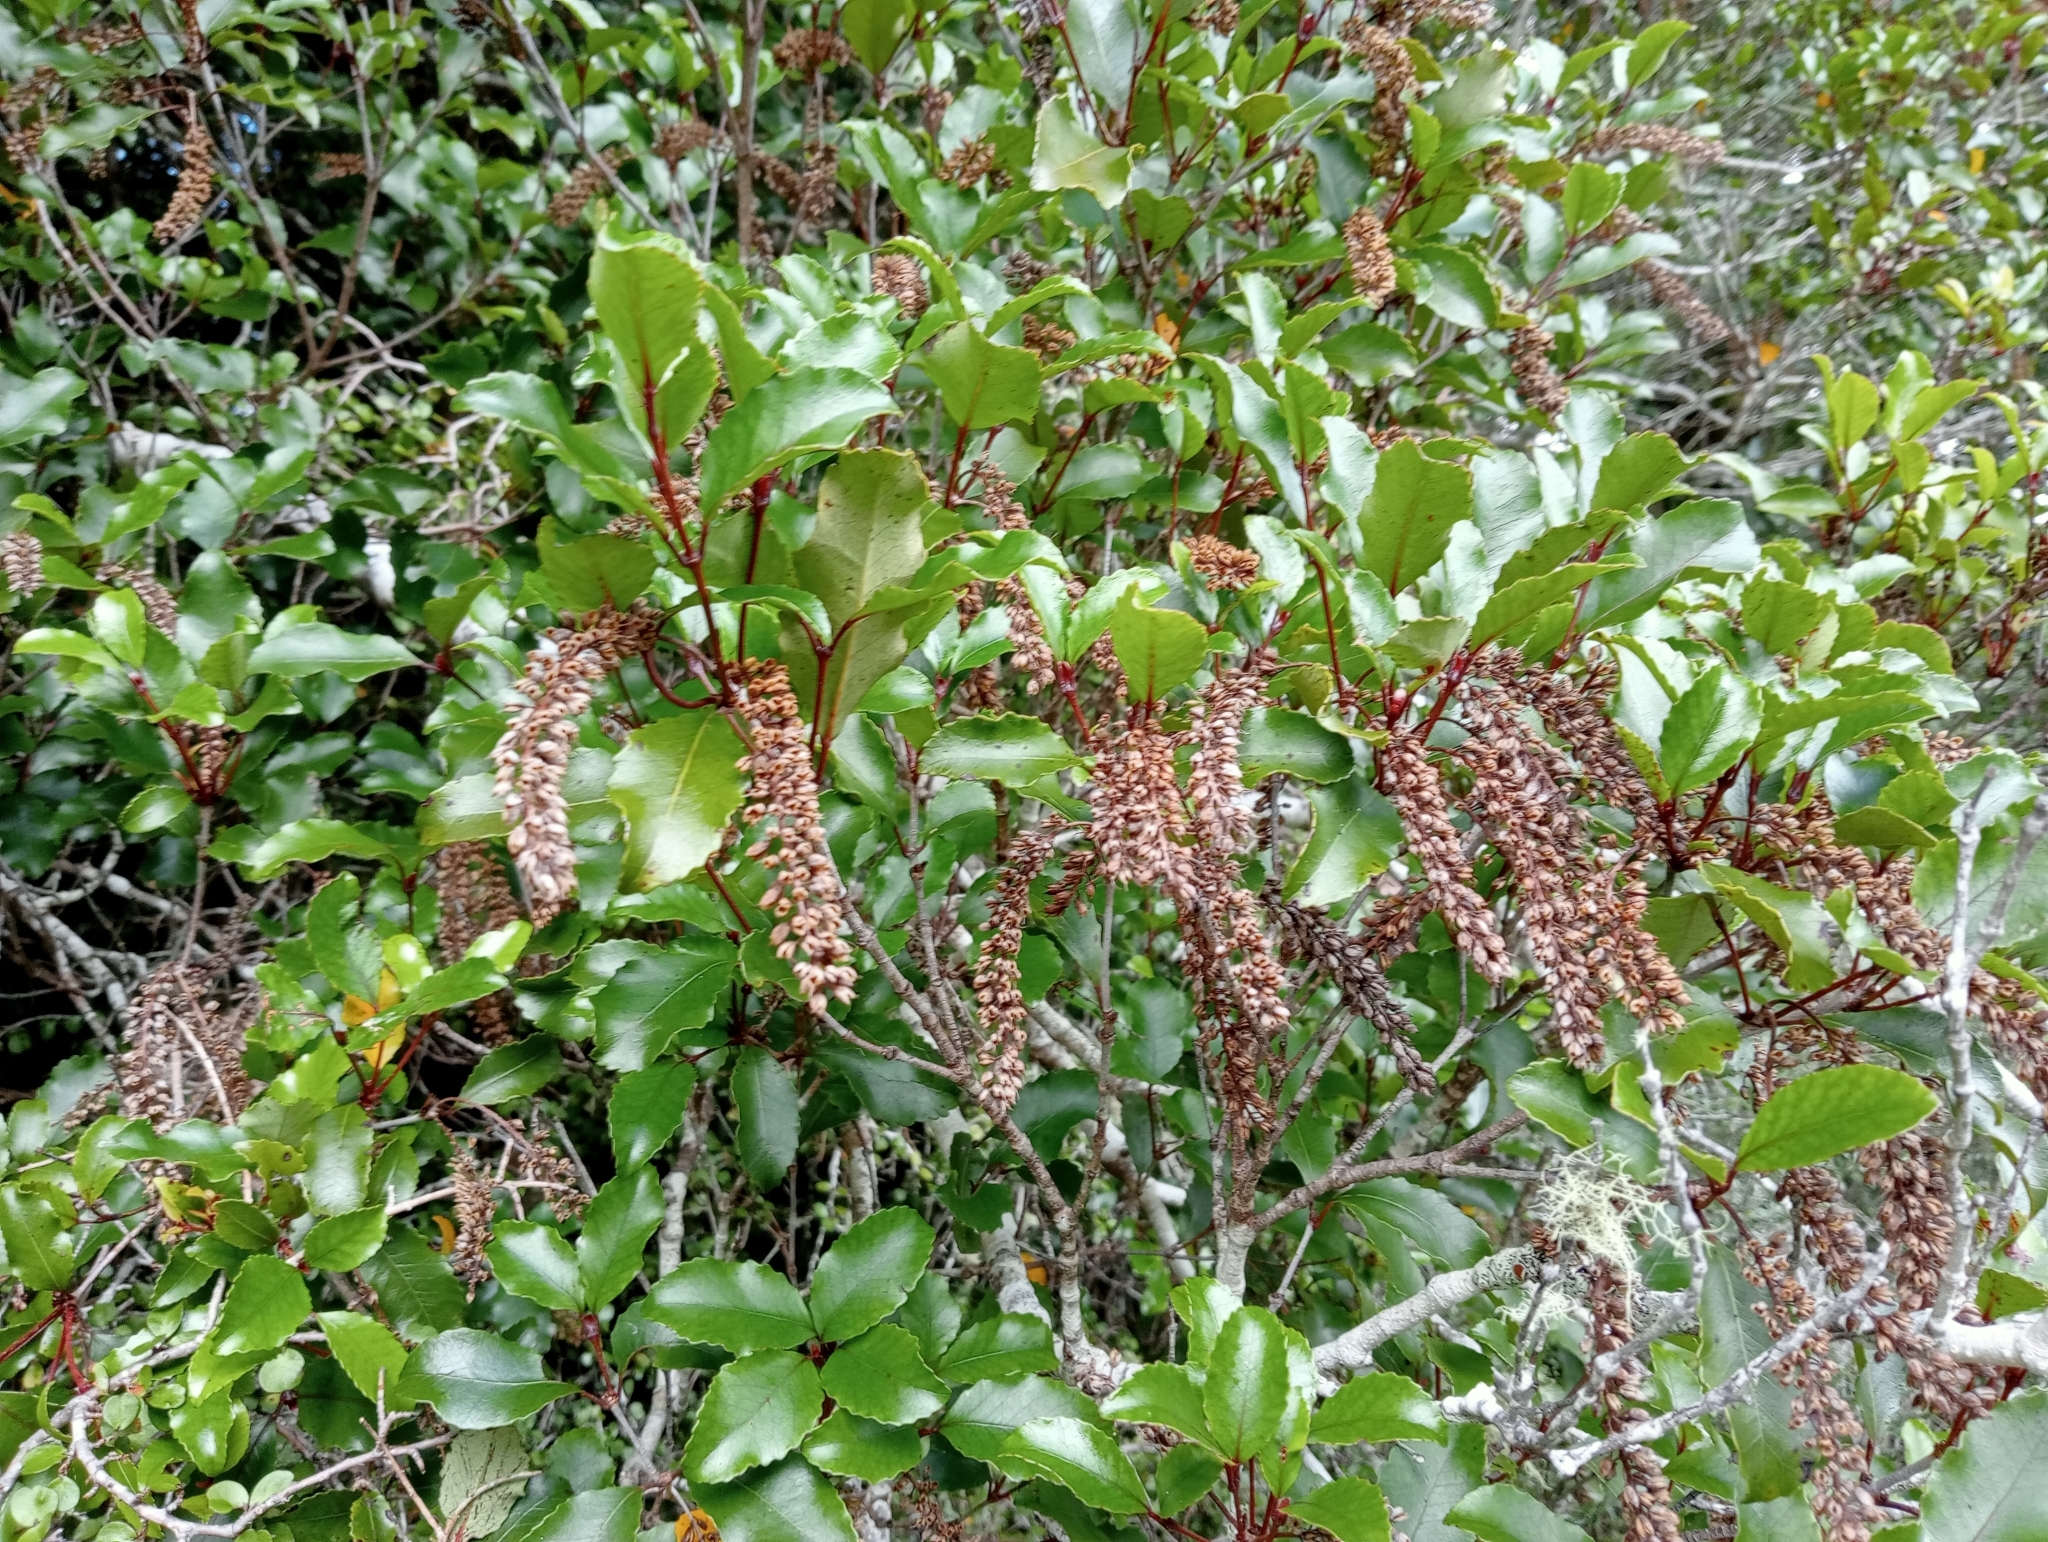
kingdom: Plantae
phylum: Tracheophyta
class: Magnoliopsida
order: Oxalidales
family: Cunoniaceae
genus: Pterophylla
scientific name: Pterophylla racemosa
